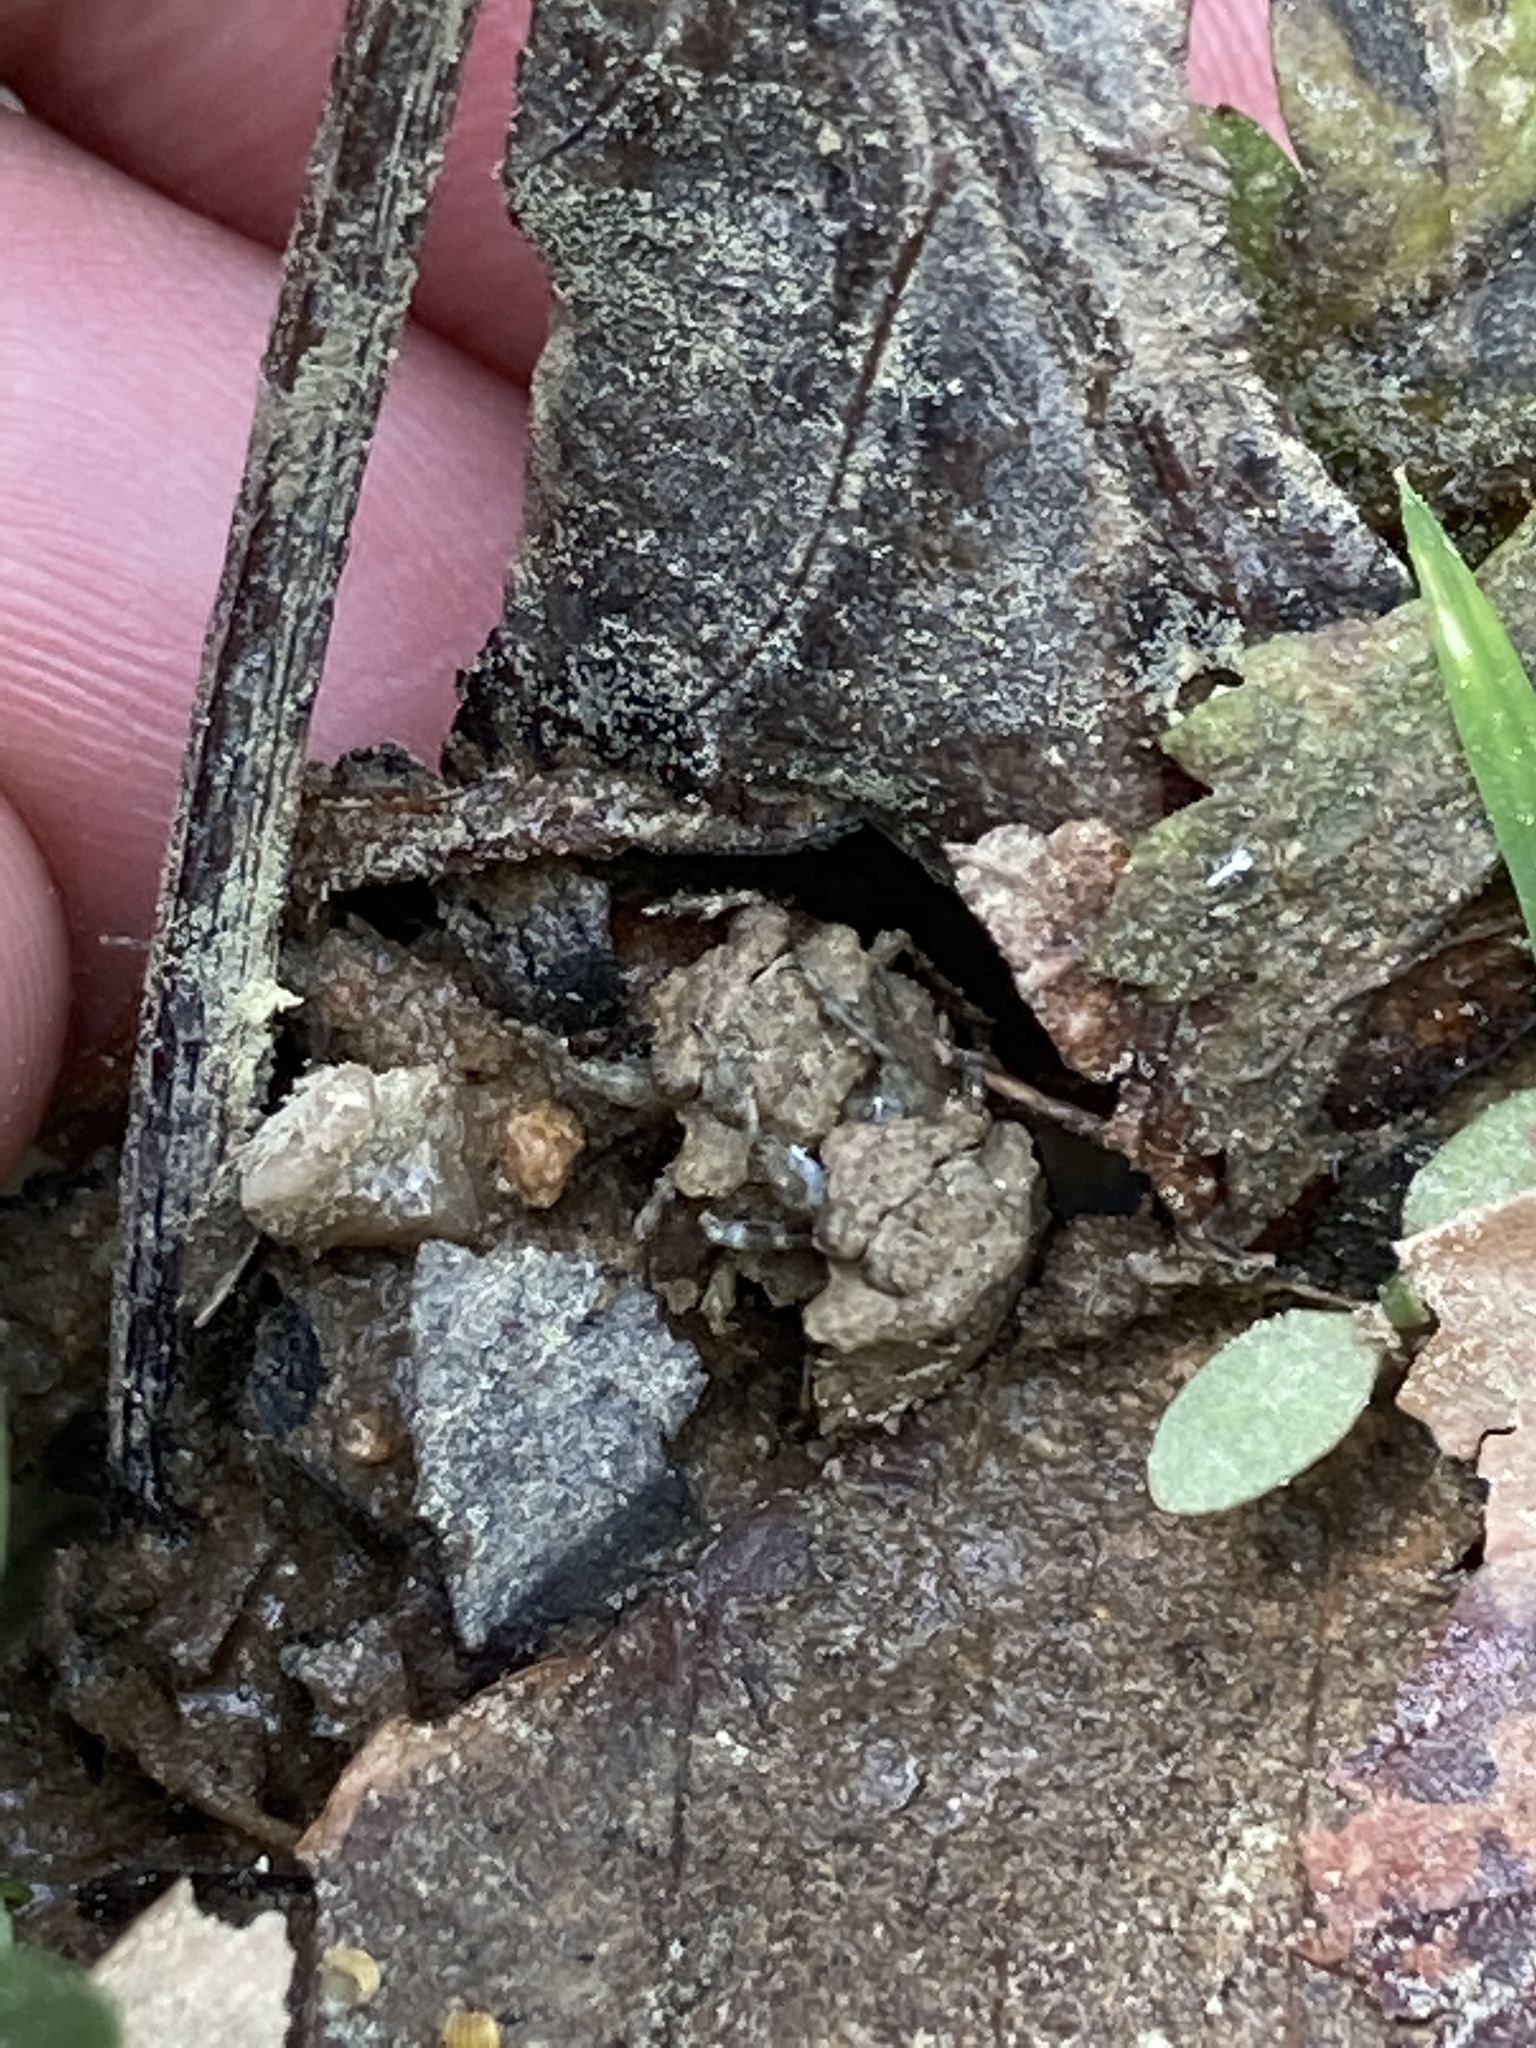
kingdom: Animalia
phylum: Arthropoda
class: Insecta
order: Hemiptera
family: Gelastocoridae
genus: Gelastocoris
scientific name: Gelastocoris oculatus
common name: Toad bug
